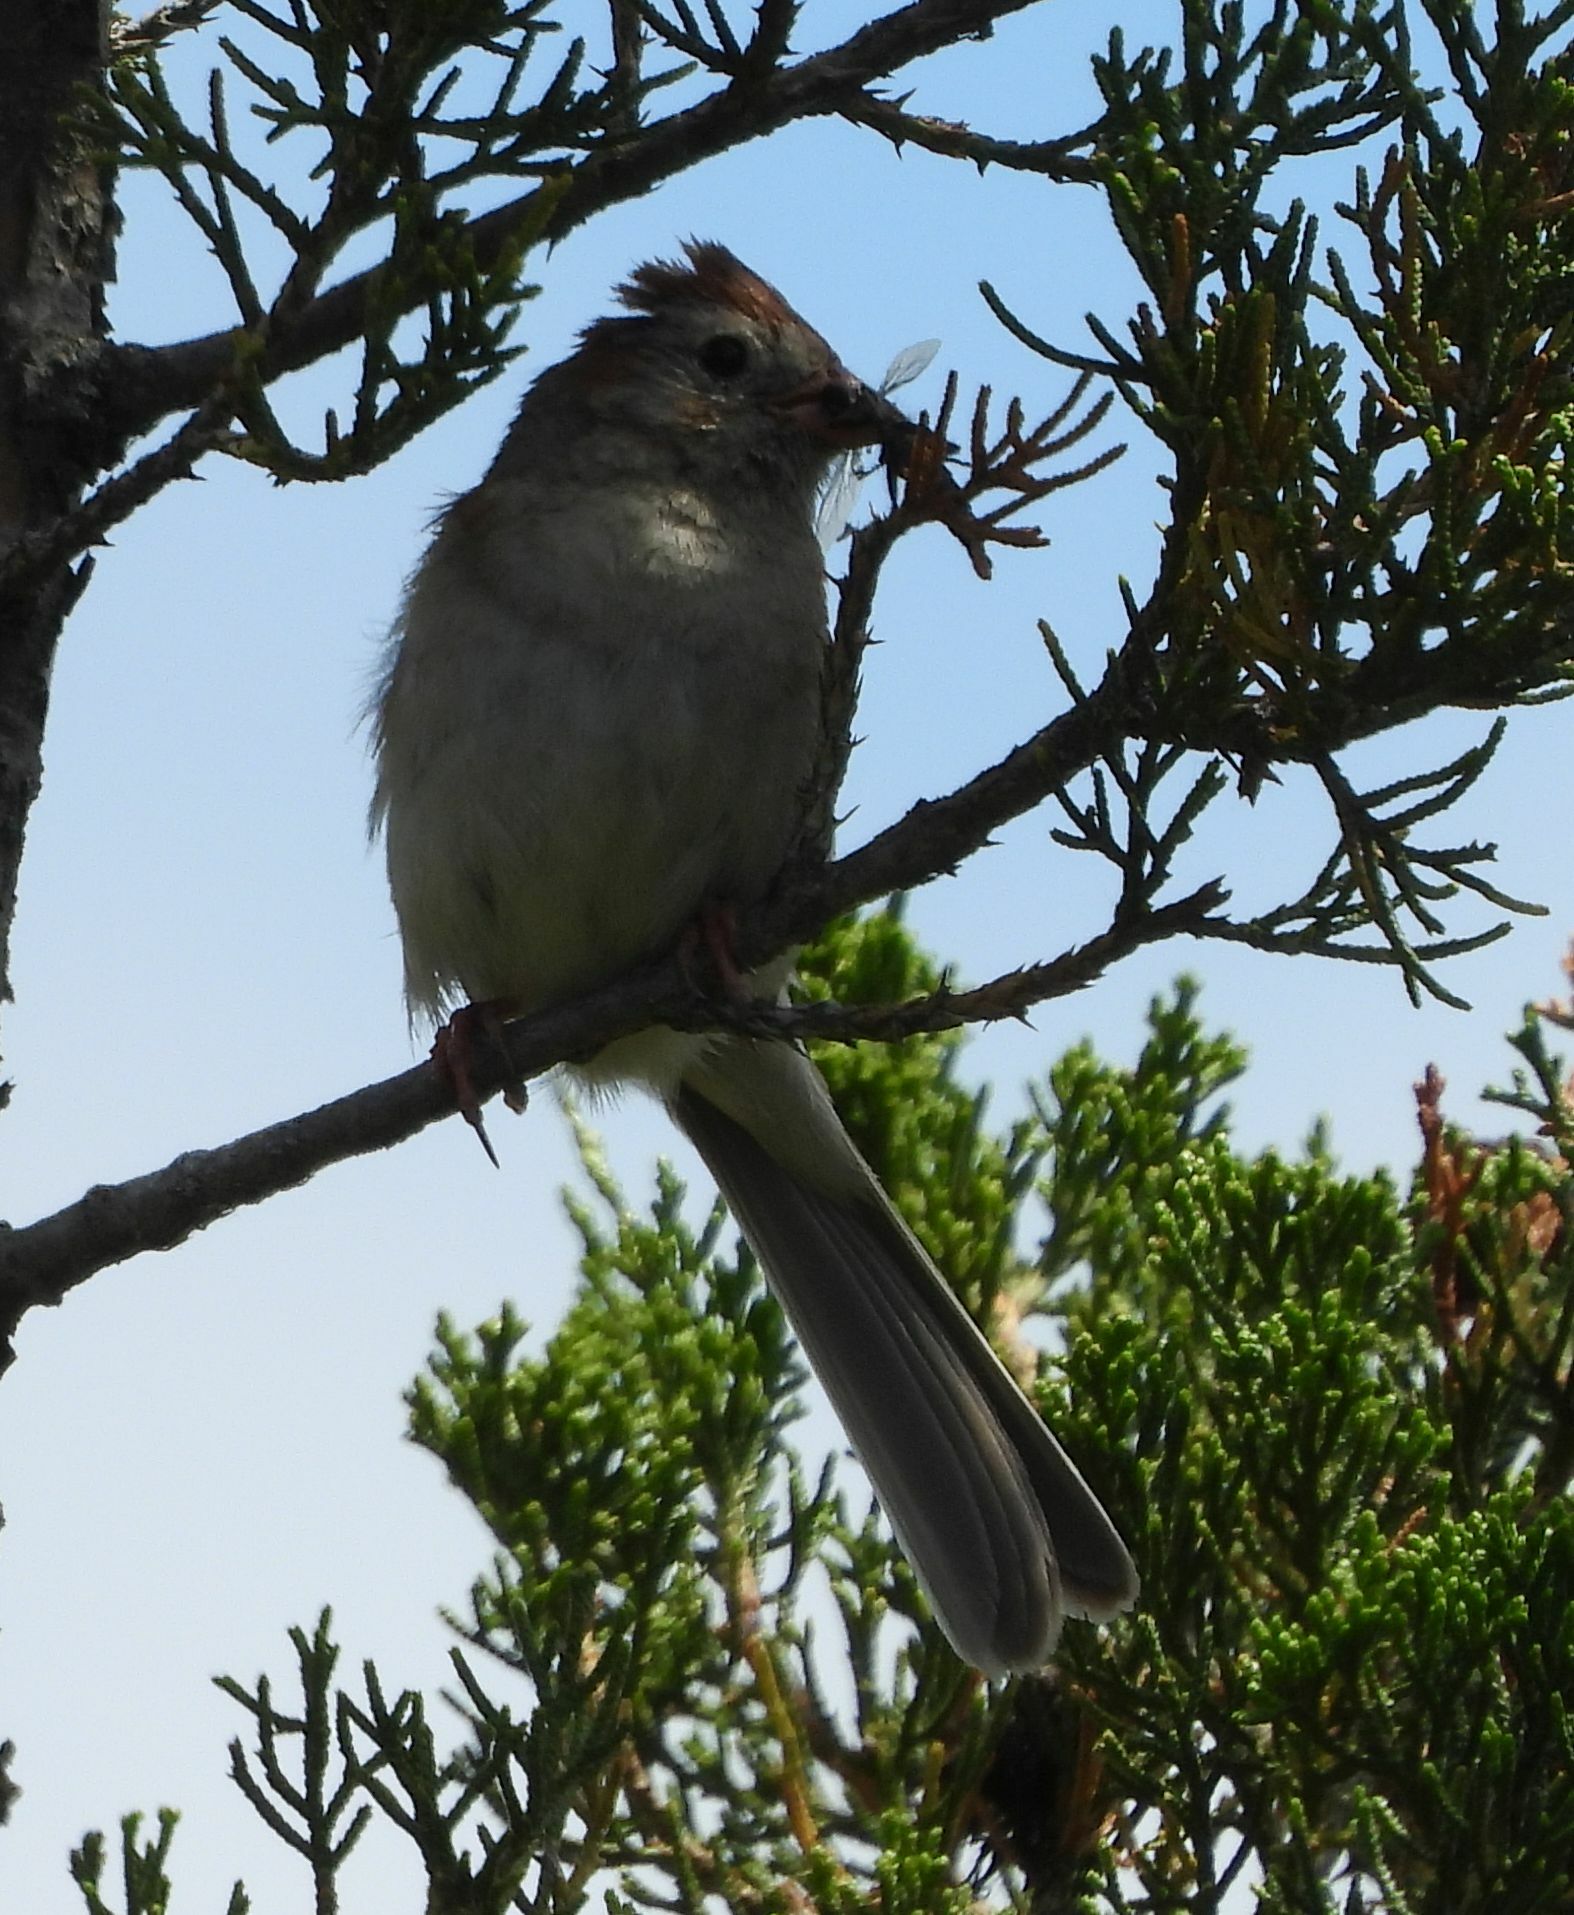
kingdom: Animalia
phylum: Chordata
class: Aves
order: Passeriformes
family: Passerellidae
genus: Spizella
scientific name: Spizella pusilla
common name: Field sparrow
